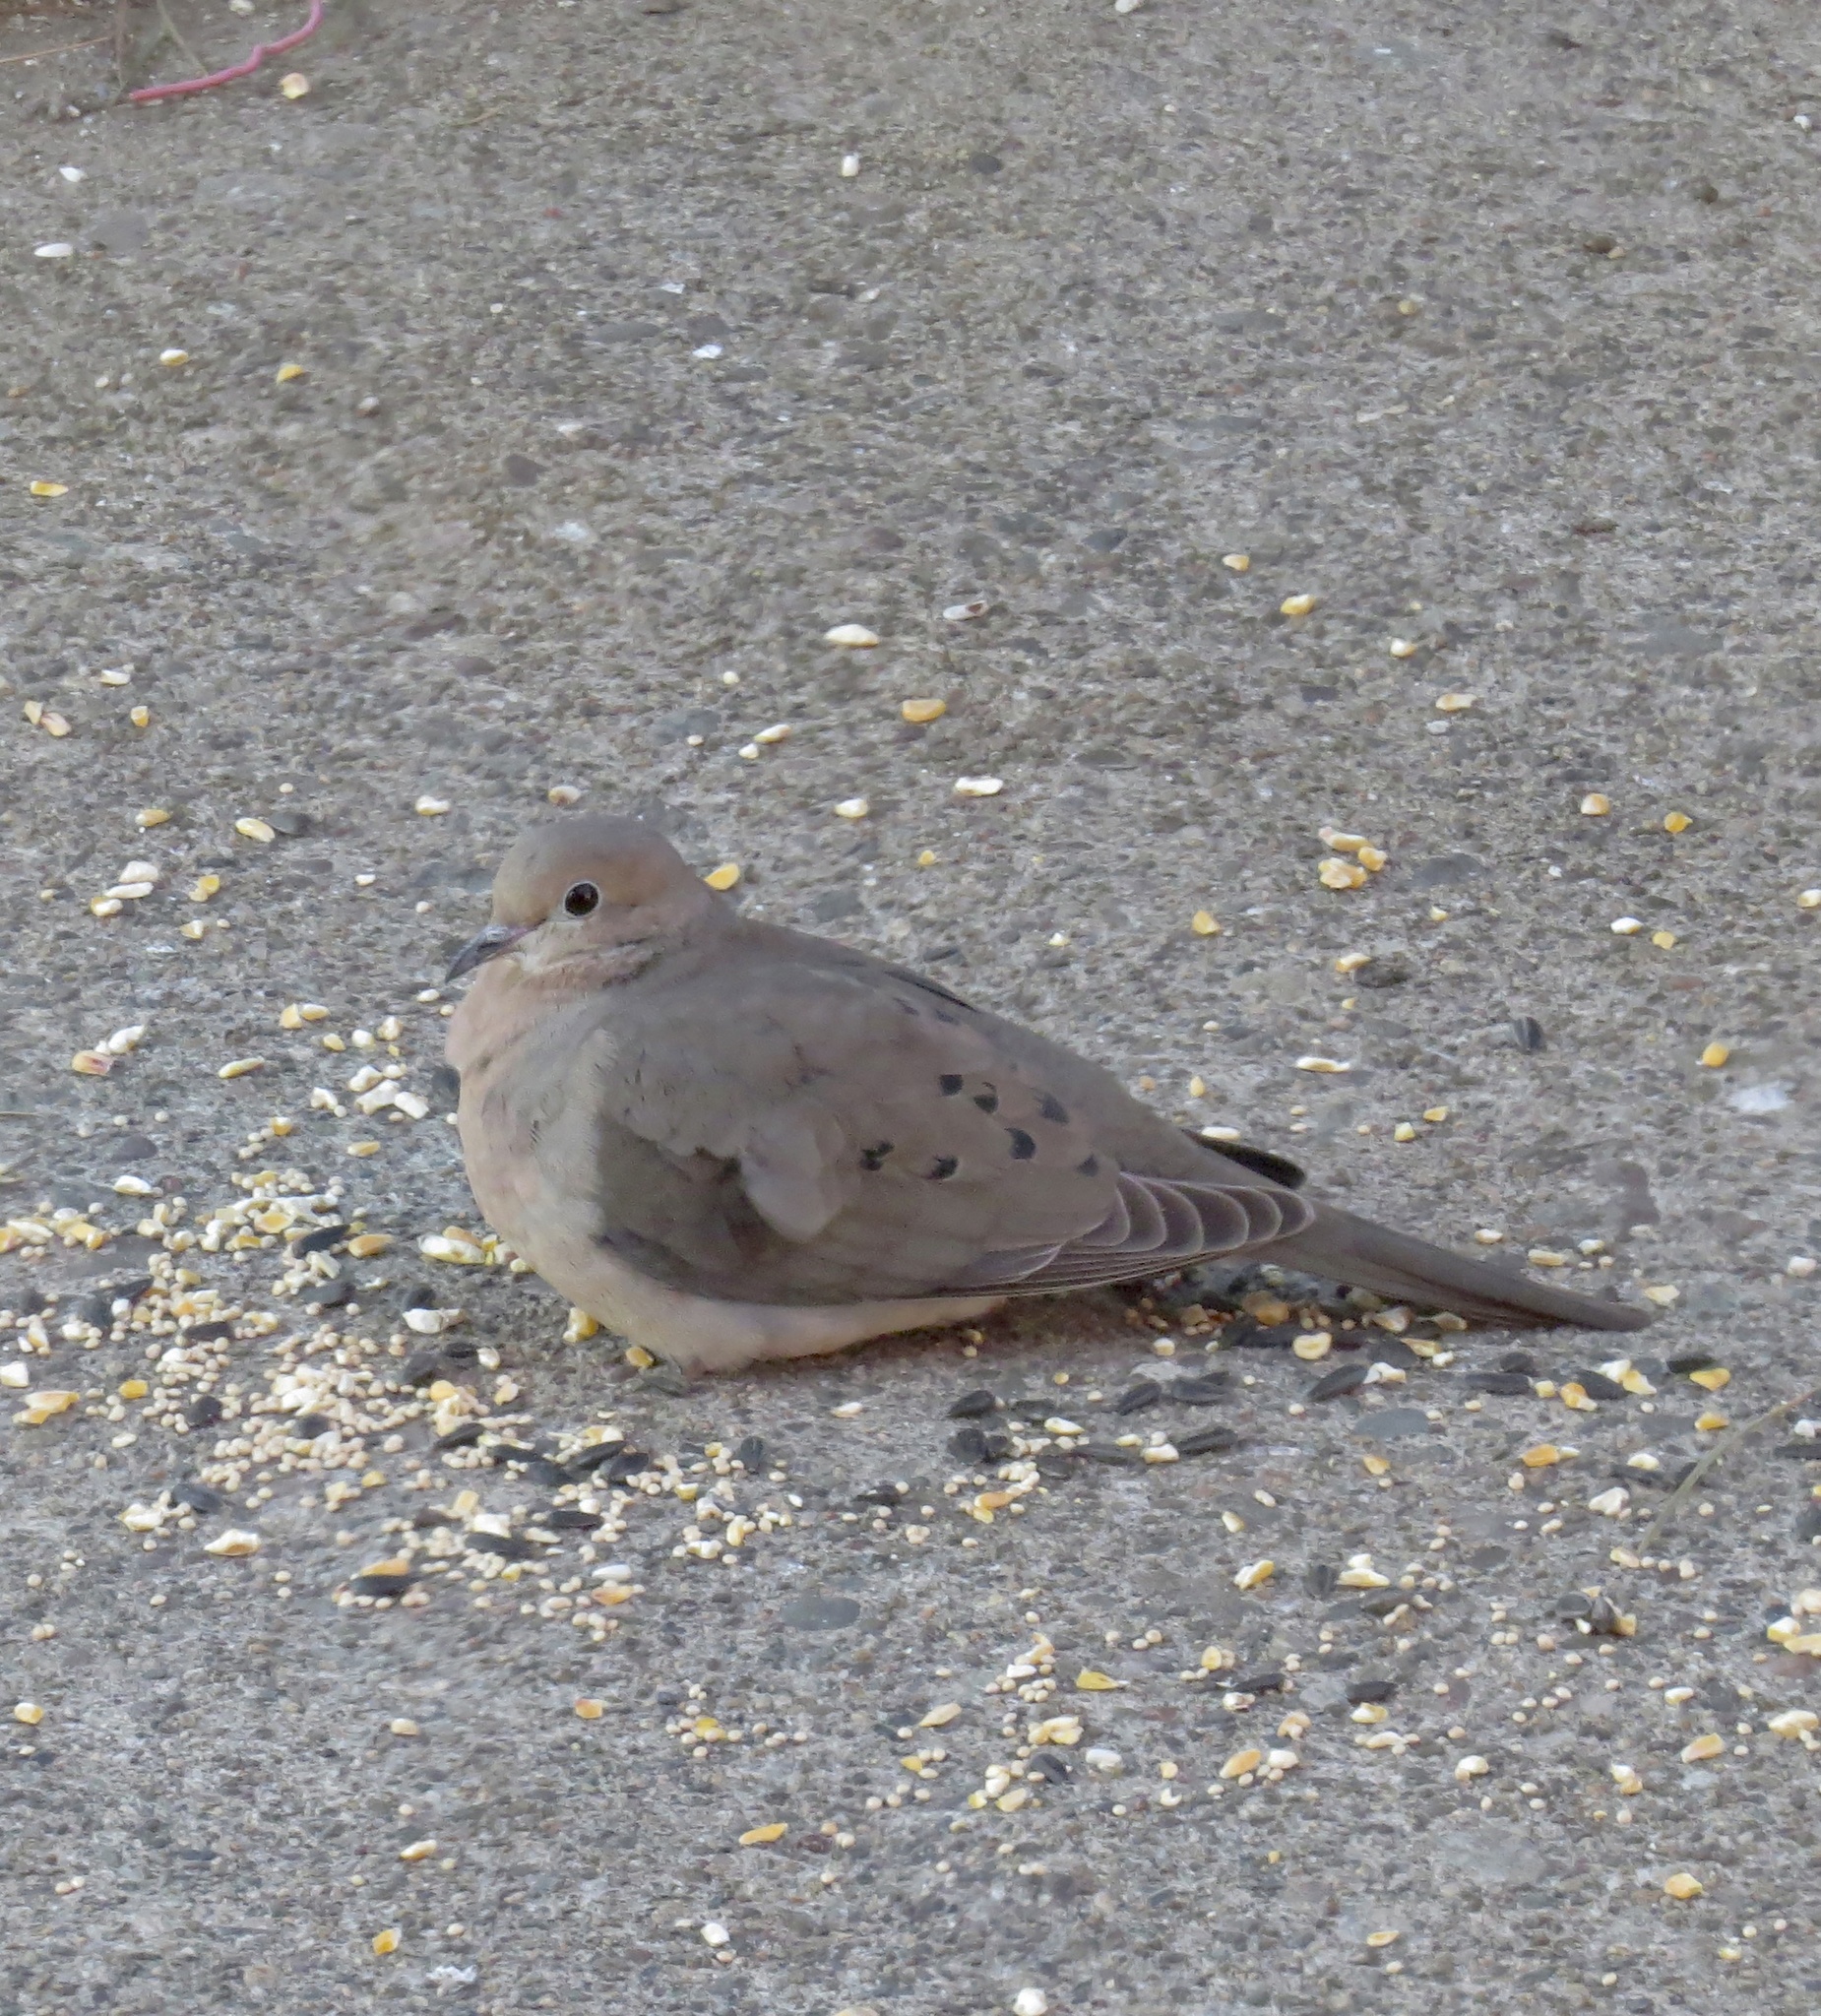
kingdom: Animalia
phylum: Chordata
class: Aves
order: Columbiformes
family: Columbidae
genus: Zenaida
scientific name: Zenaida macroura
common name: Mourning dove
